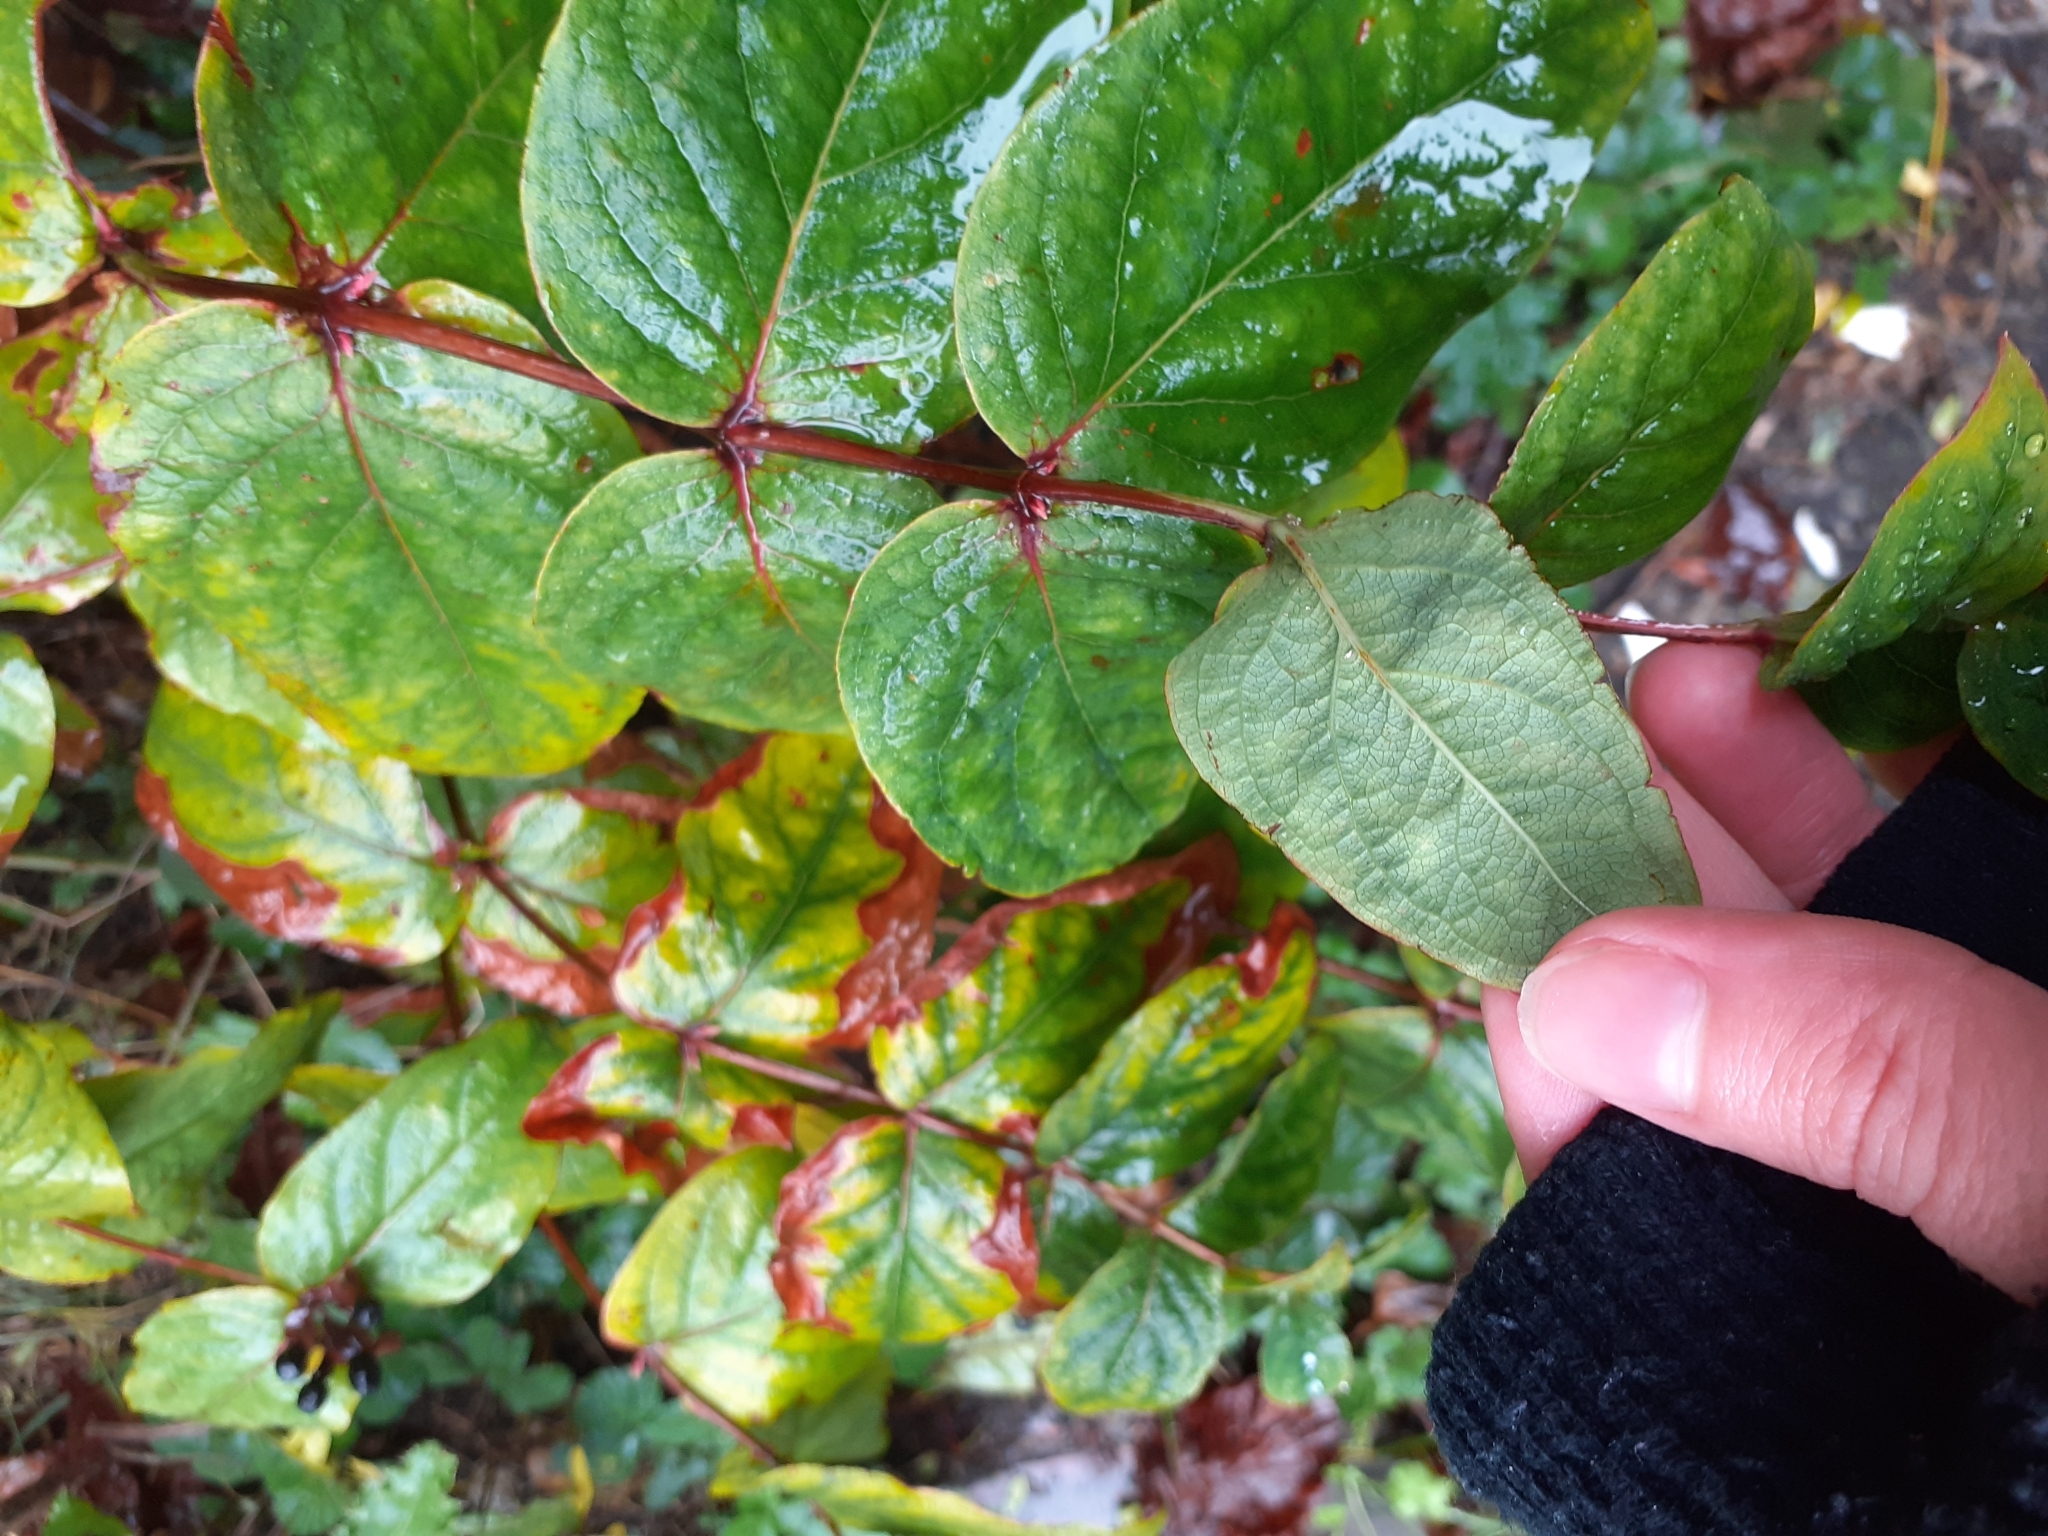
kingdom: Plantae
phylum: Tracheophyta
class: Magnoliopsida
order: Malpighiales
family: Hypericaceae
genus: Hypericum
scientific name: Hypericum androsaemum
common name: Sweet-amber
